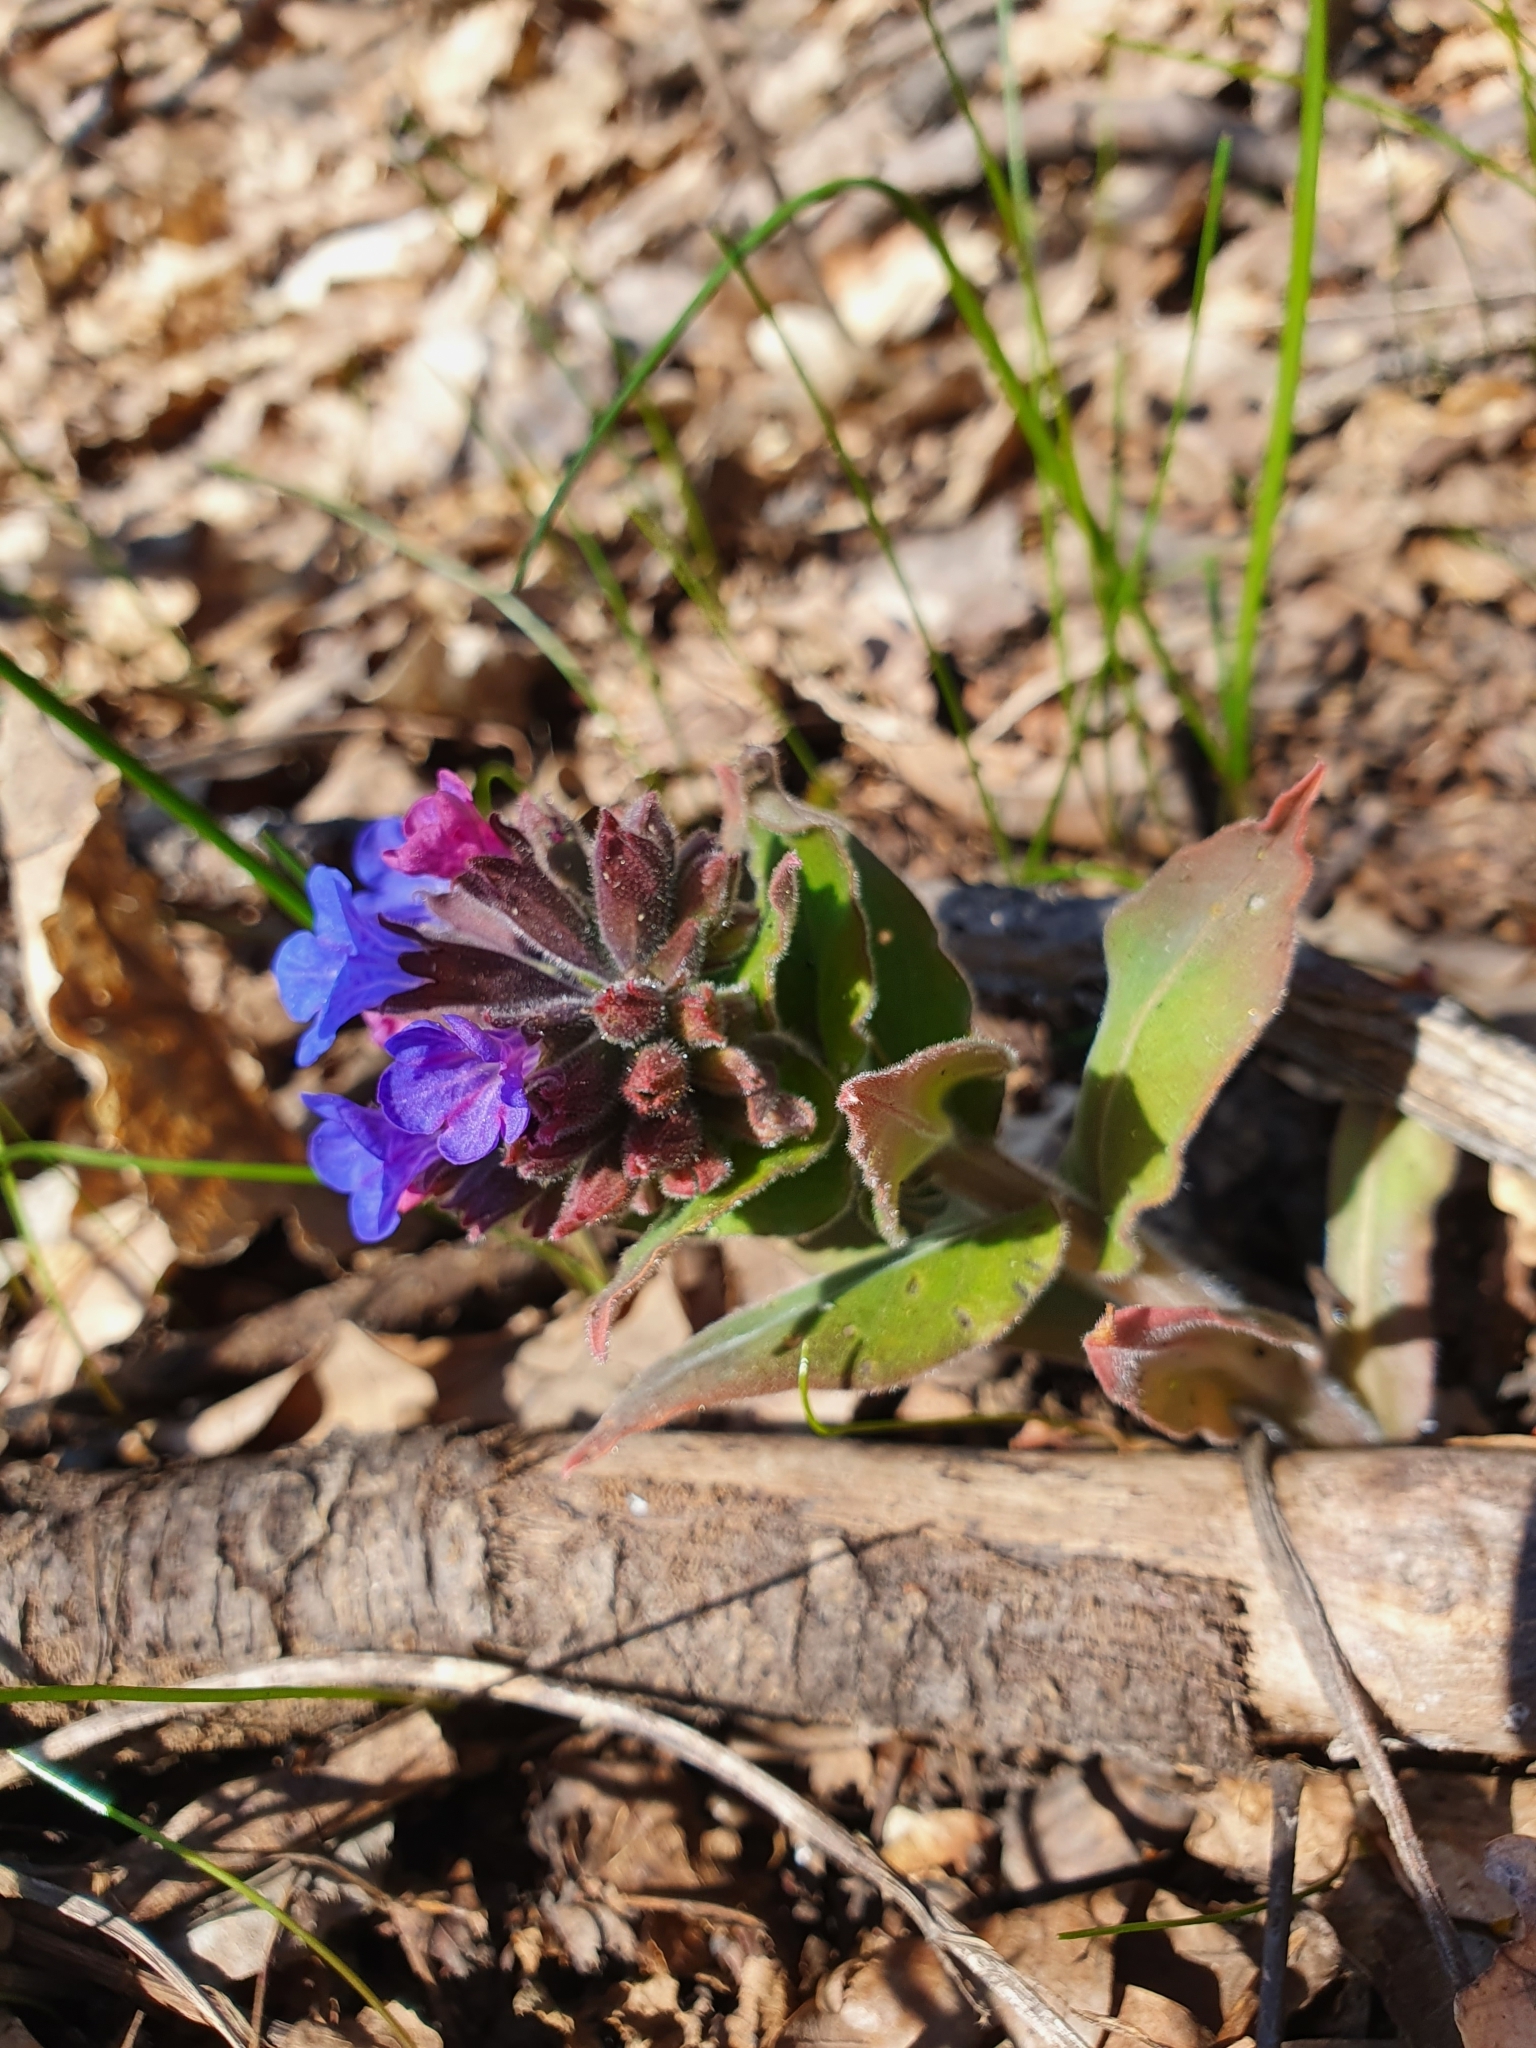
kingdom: Plantae
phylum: Tracheophyta
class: Magnoliopsida
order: Boraginales
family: Boraginaceae
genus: Pulmonaria
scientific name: Pulmonaria mollis
